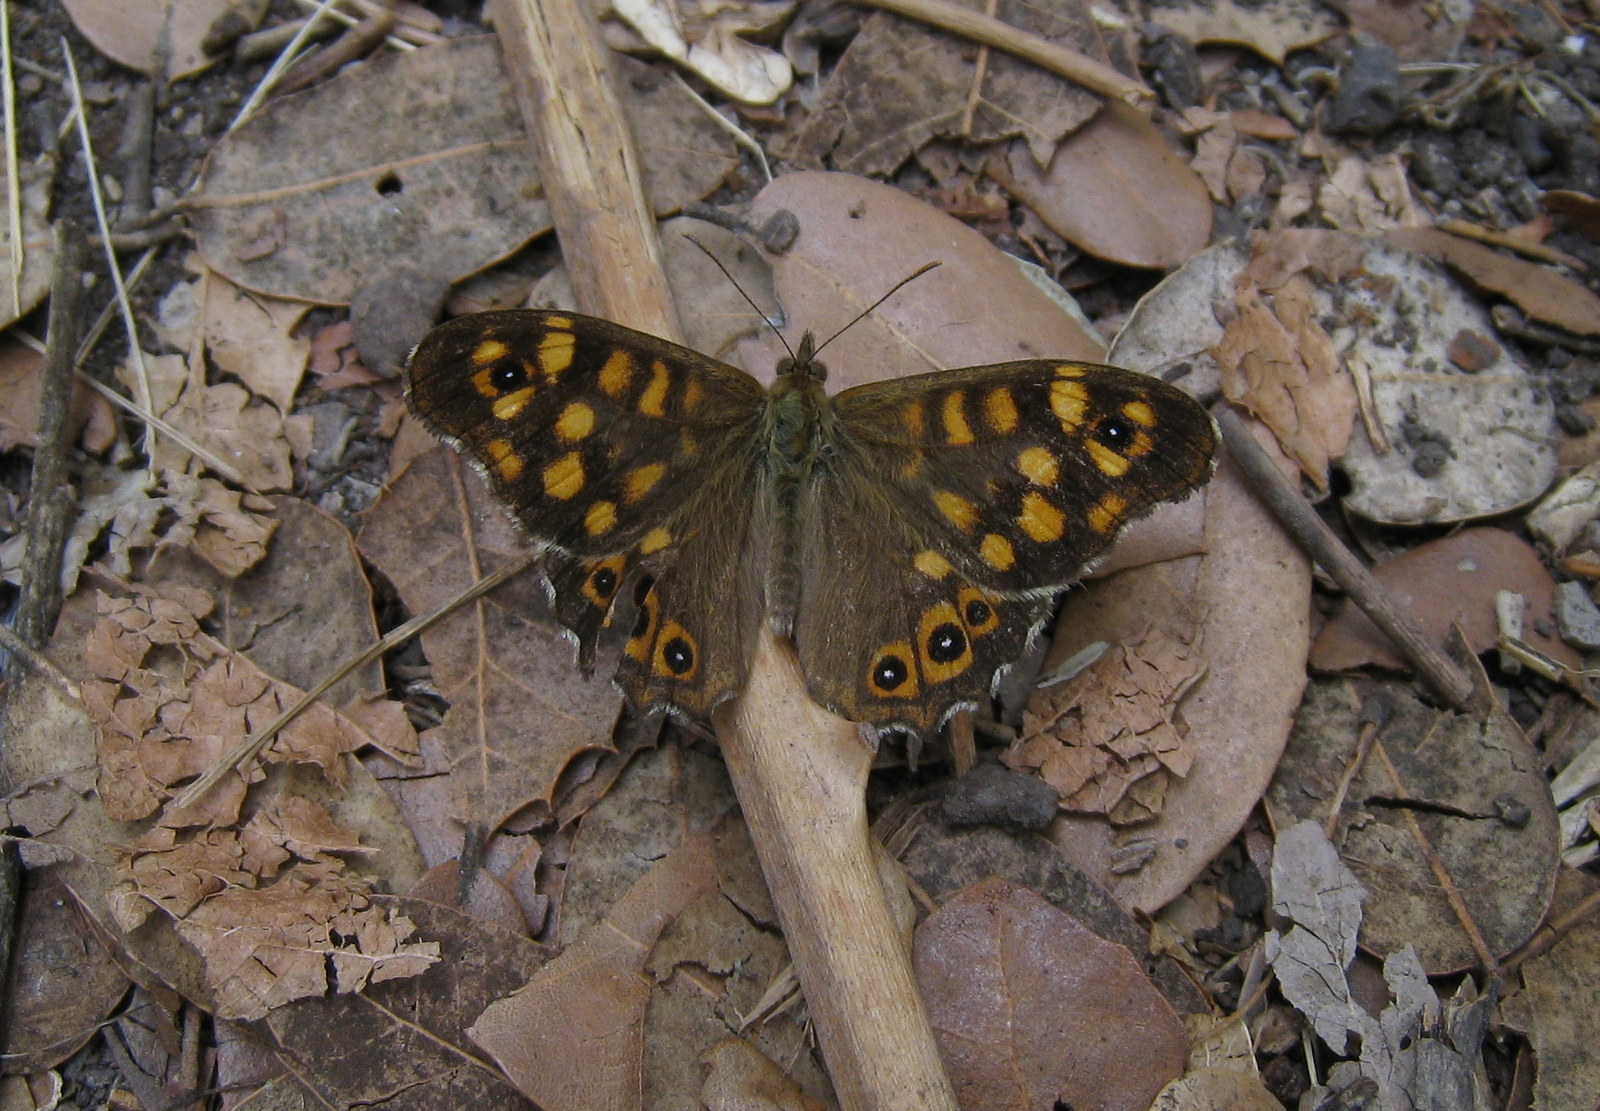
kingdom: Animalia
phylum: Arthropoda
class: Insecta
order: Lepidoptera
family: Nymphalidae
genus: Pararge
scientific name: Pararge aegeria
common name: Speckled wood
